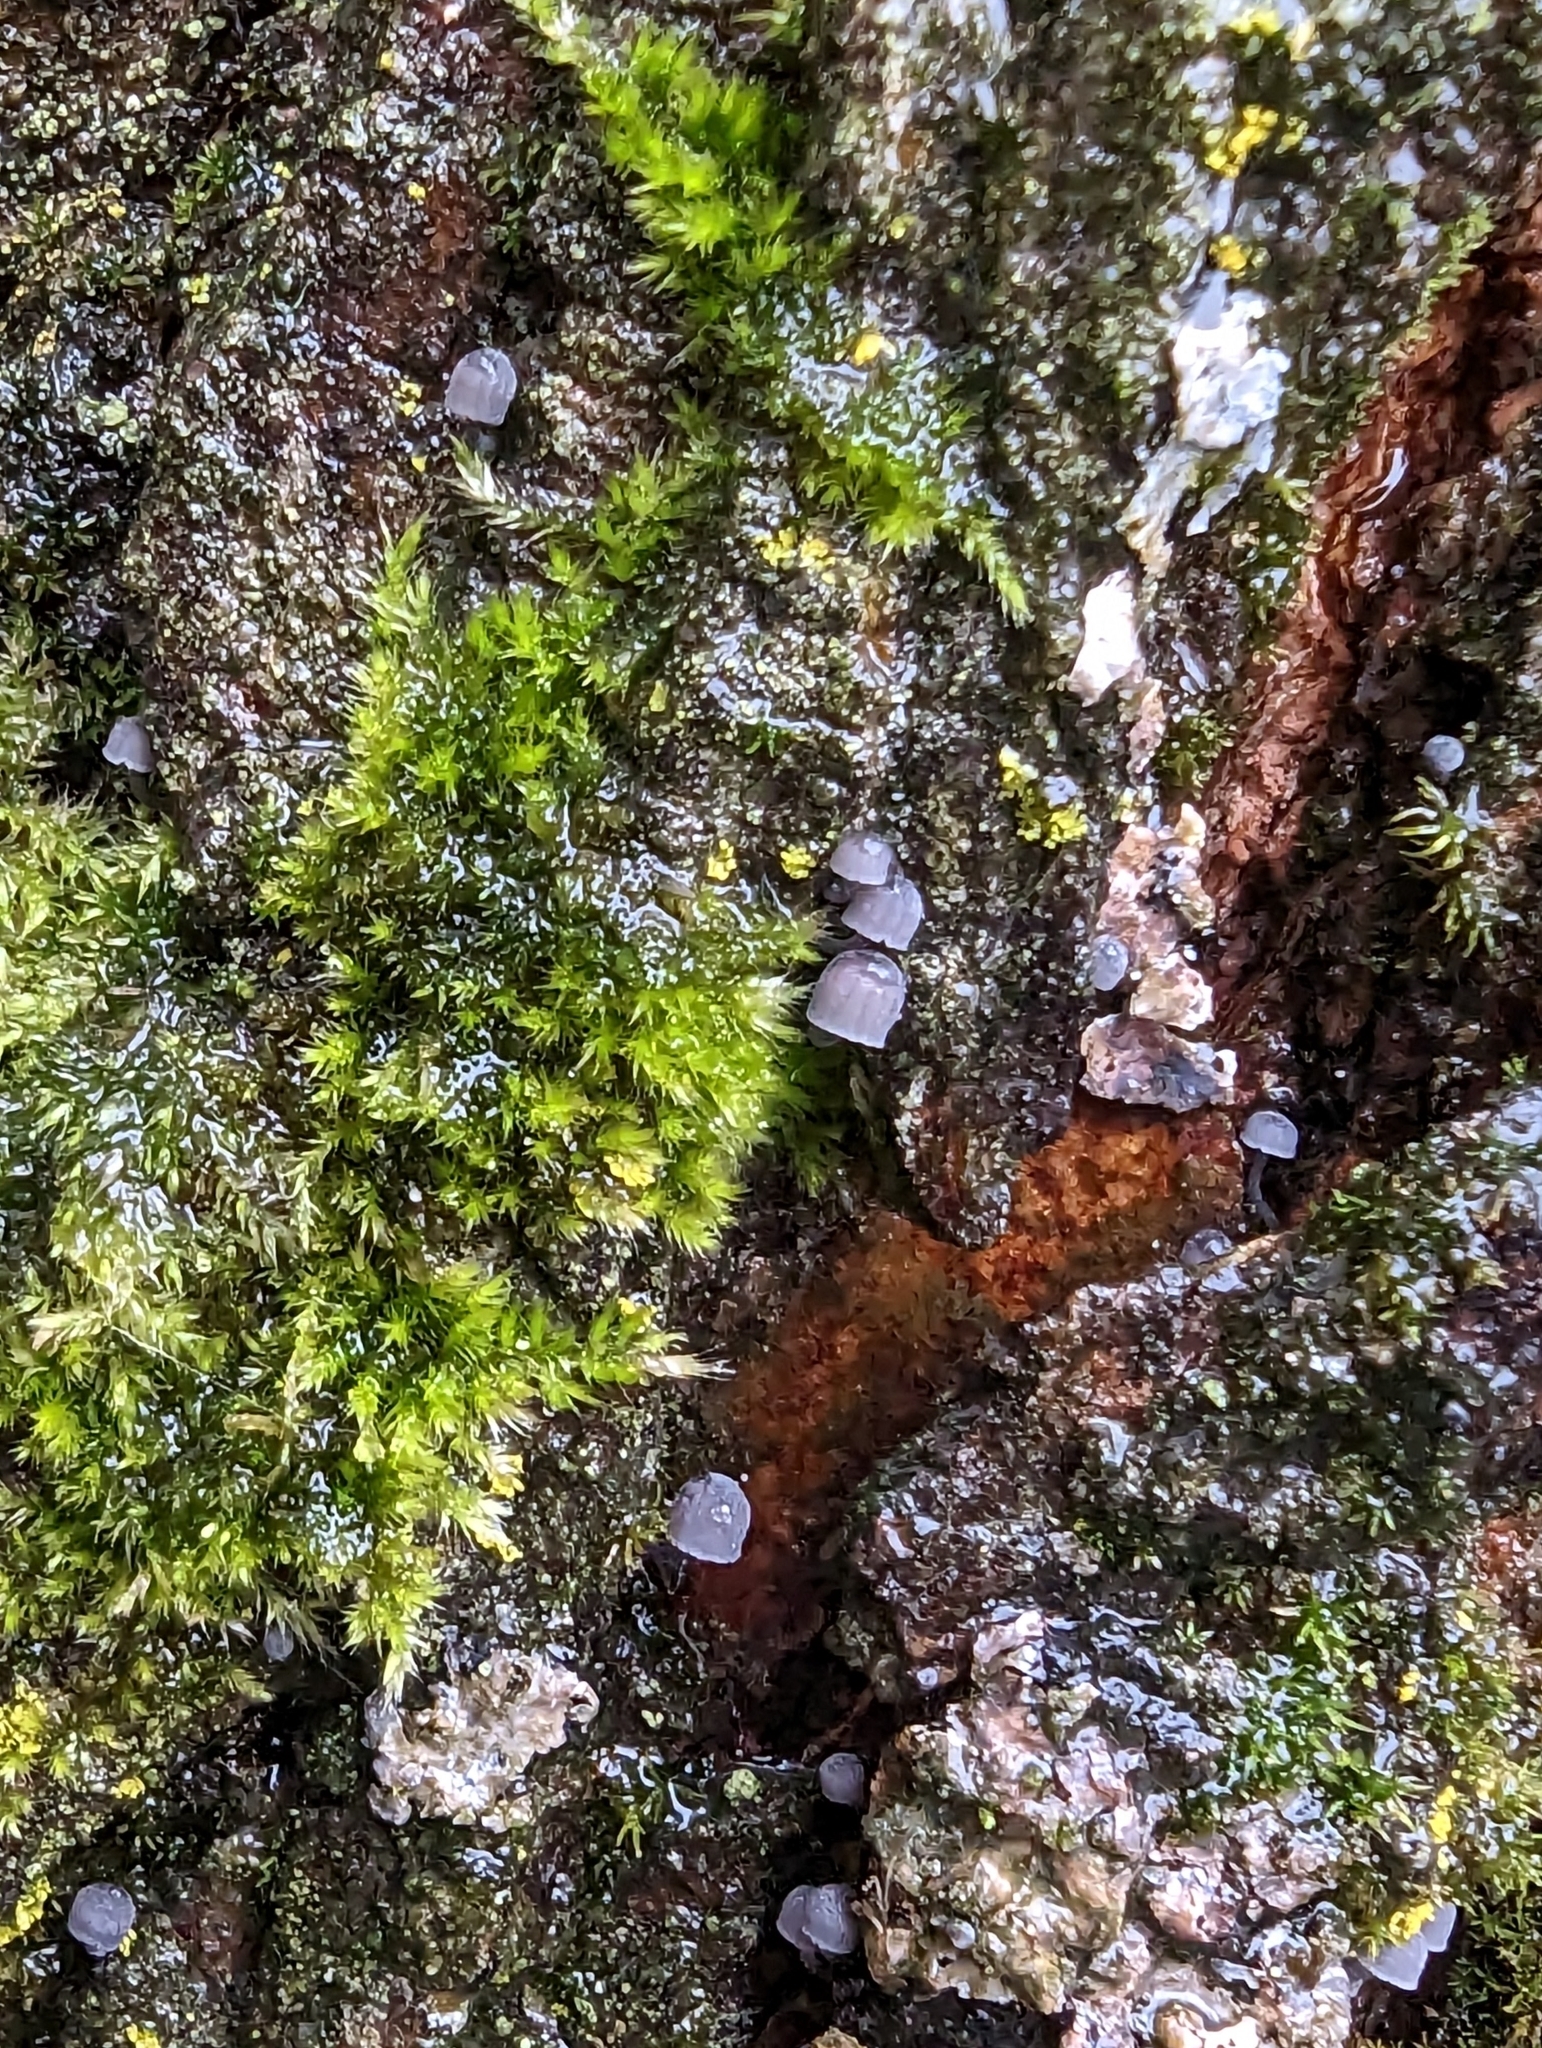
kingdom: Fungi
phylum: Basidiomycota
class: Agaricomycetes
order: Agaricales
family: Mycenaceae
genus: Mycena
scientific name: Mycena pseudocorticola
